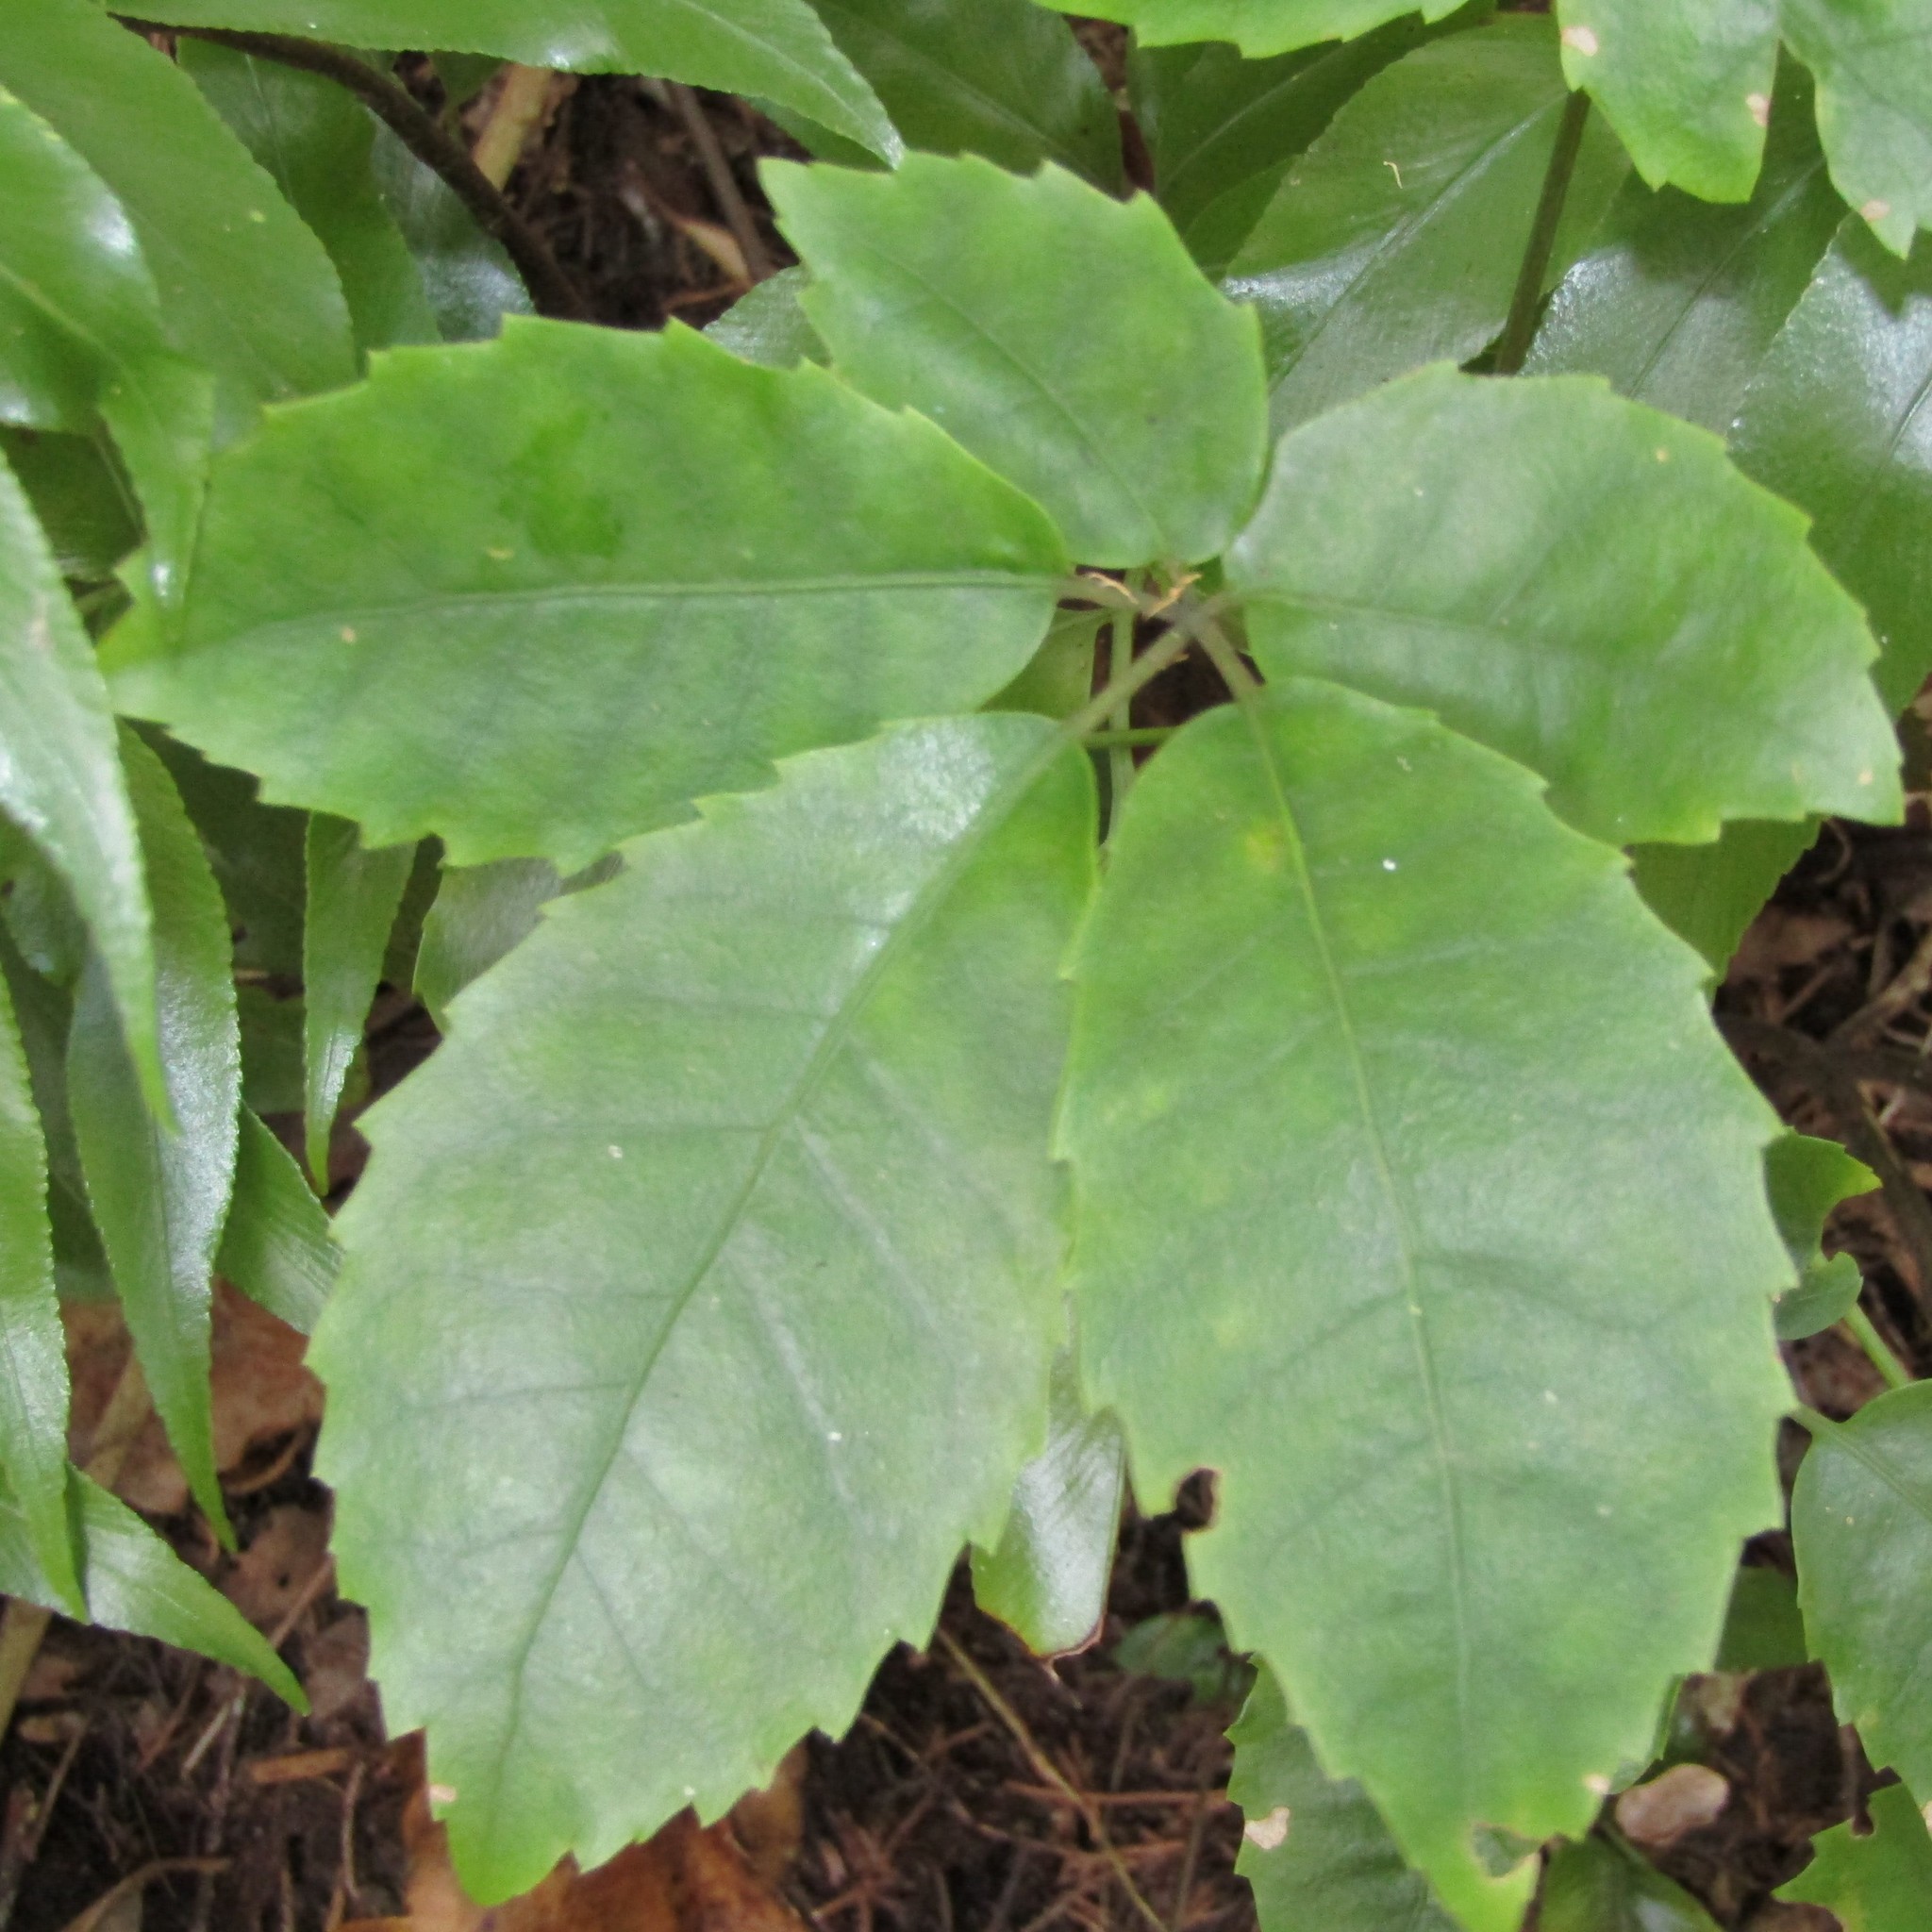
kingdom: Plantae
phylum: Tracheophyta
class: Magnoliopsida
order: Apiales
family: Araliaceae
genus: Neopanax
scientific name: Neopanax arboreus
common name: Five-fingers
